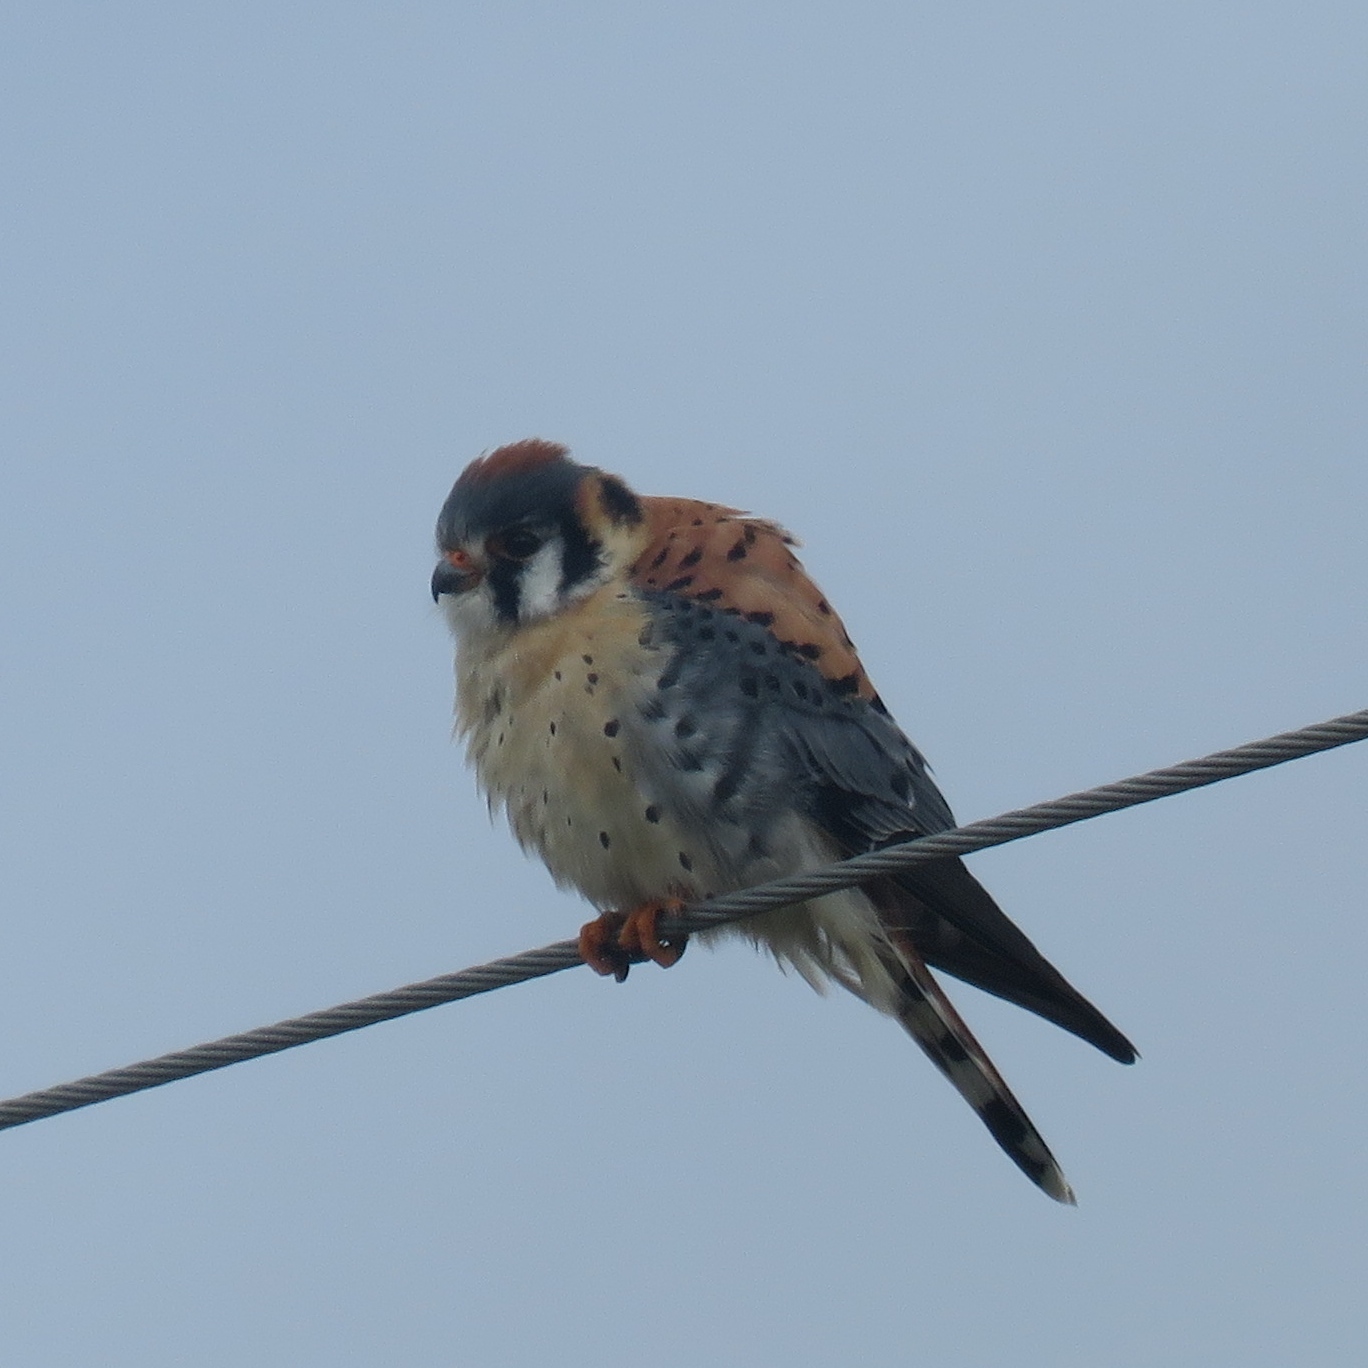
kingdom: Animalia
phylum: Chordata
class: Aves
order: Falconiformes
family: Falconidae
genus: Falco
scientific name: Falco sparverius
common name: American kestrel
